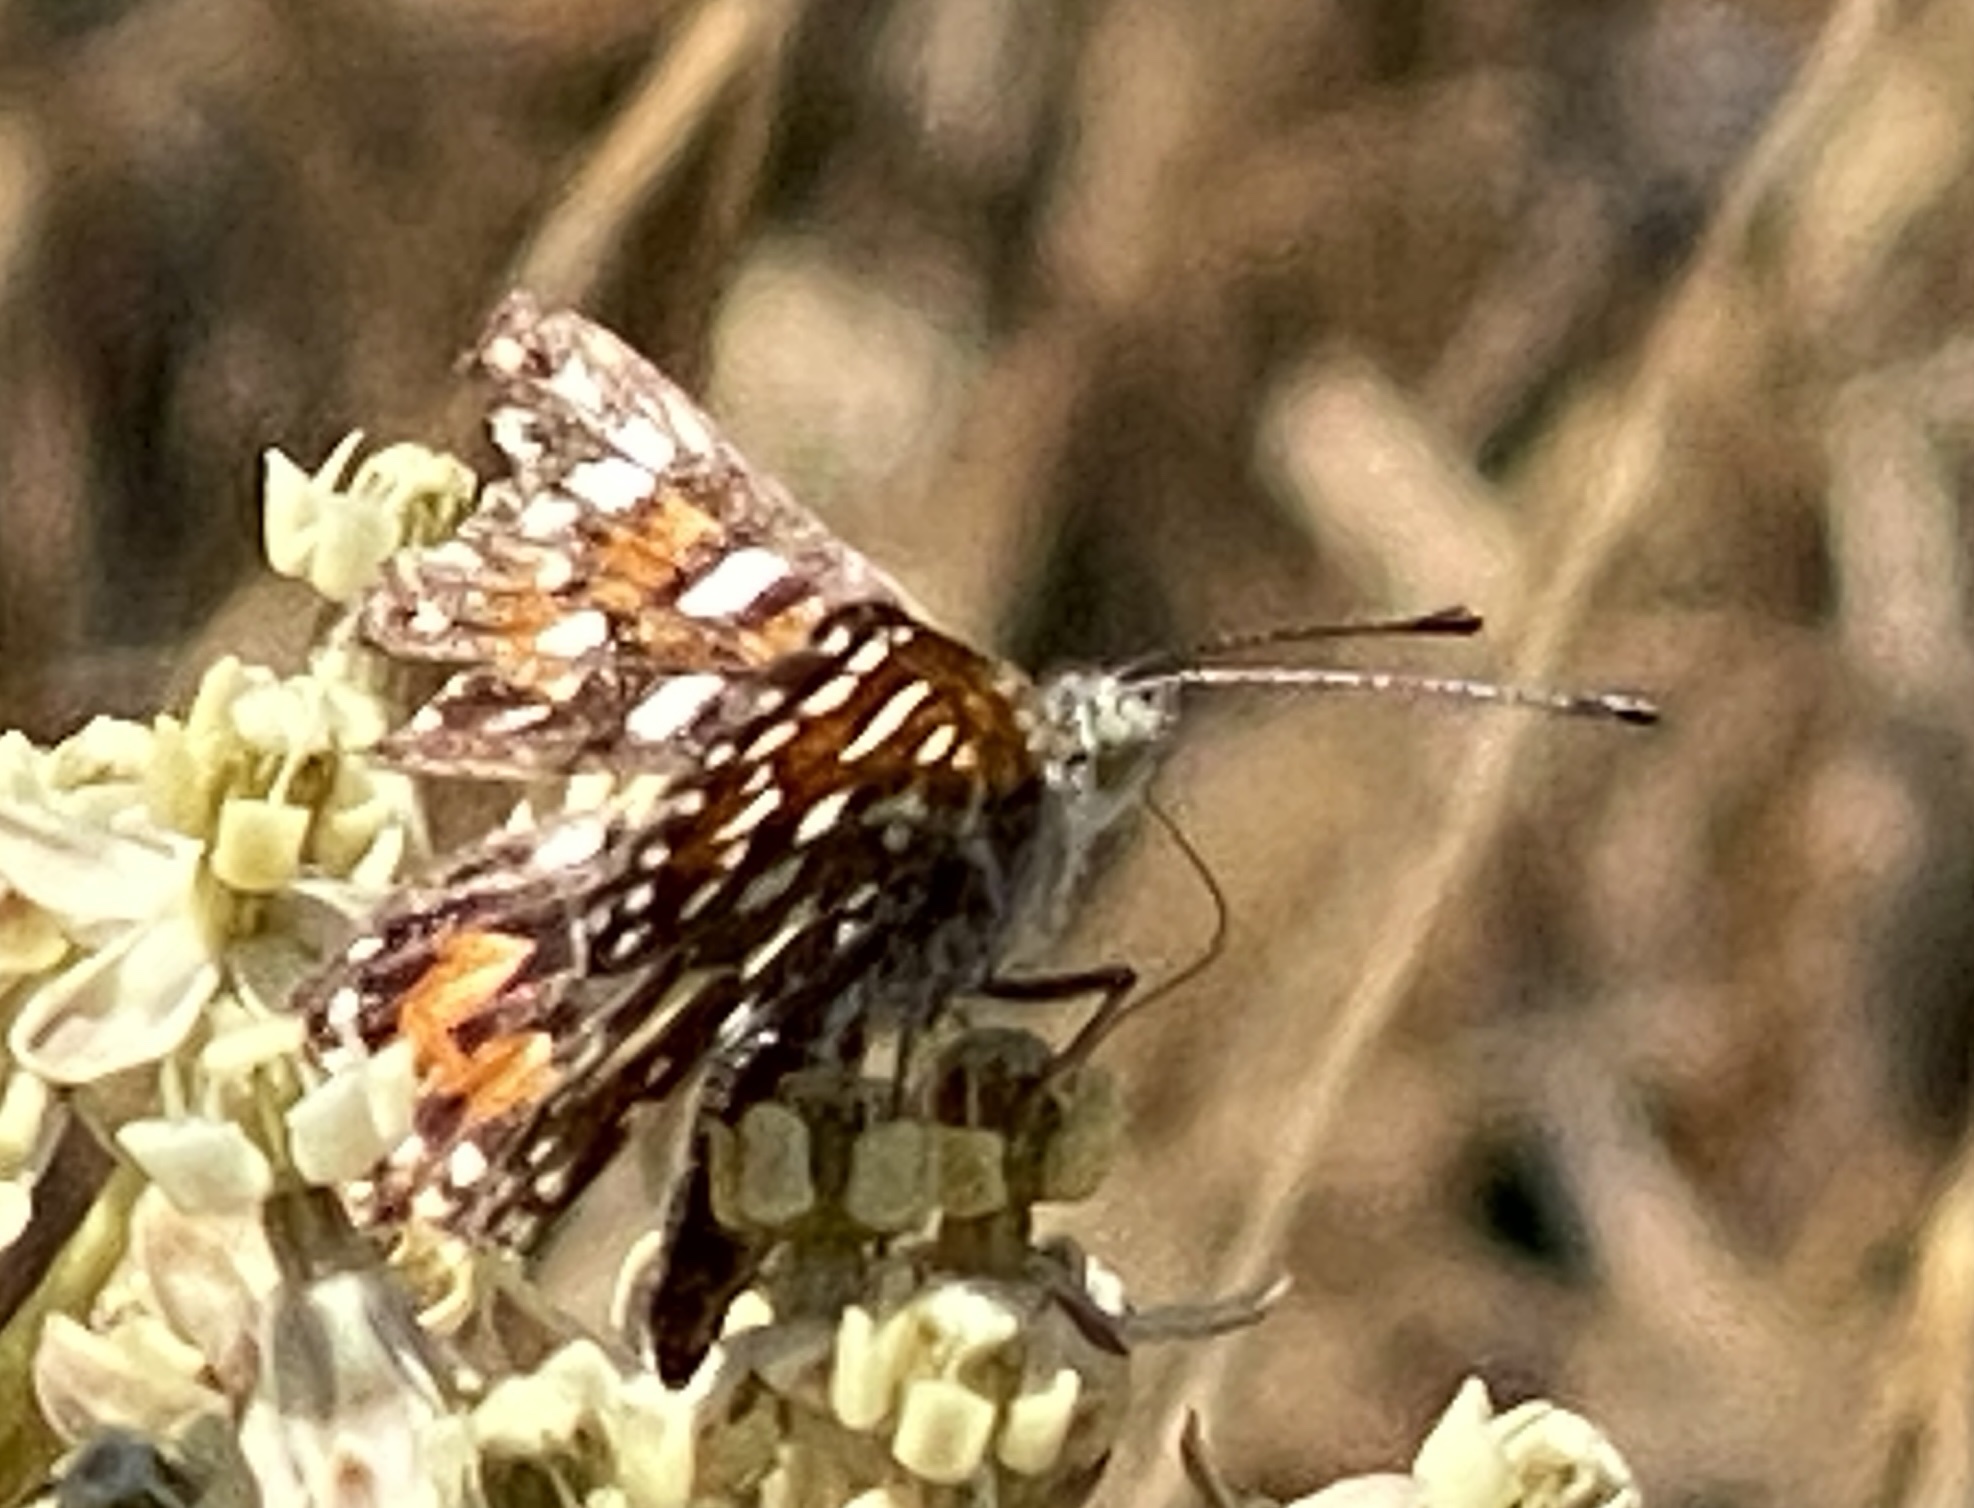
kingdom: Animalia
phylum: Arthropoda
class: Insecta
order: Lepidoptera
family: Riodinidae
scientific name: Riodinidae
